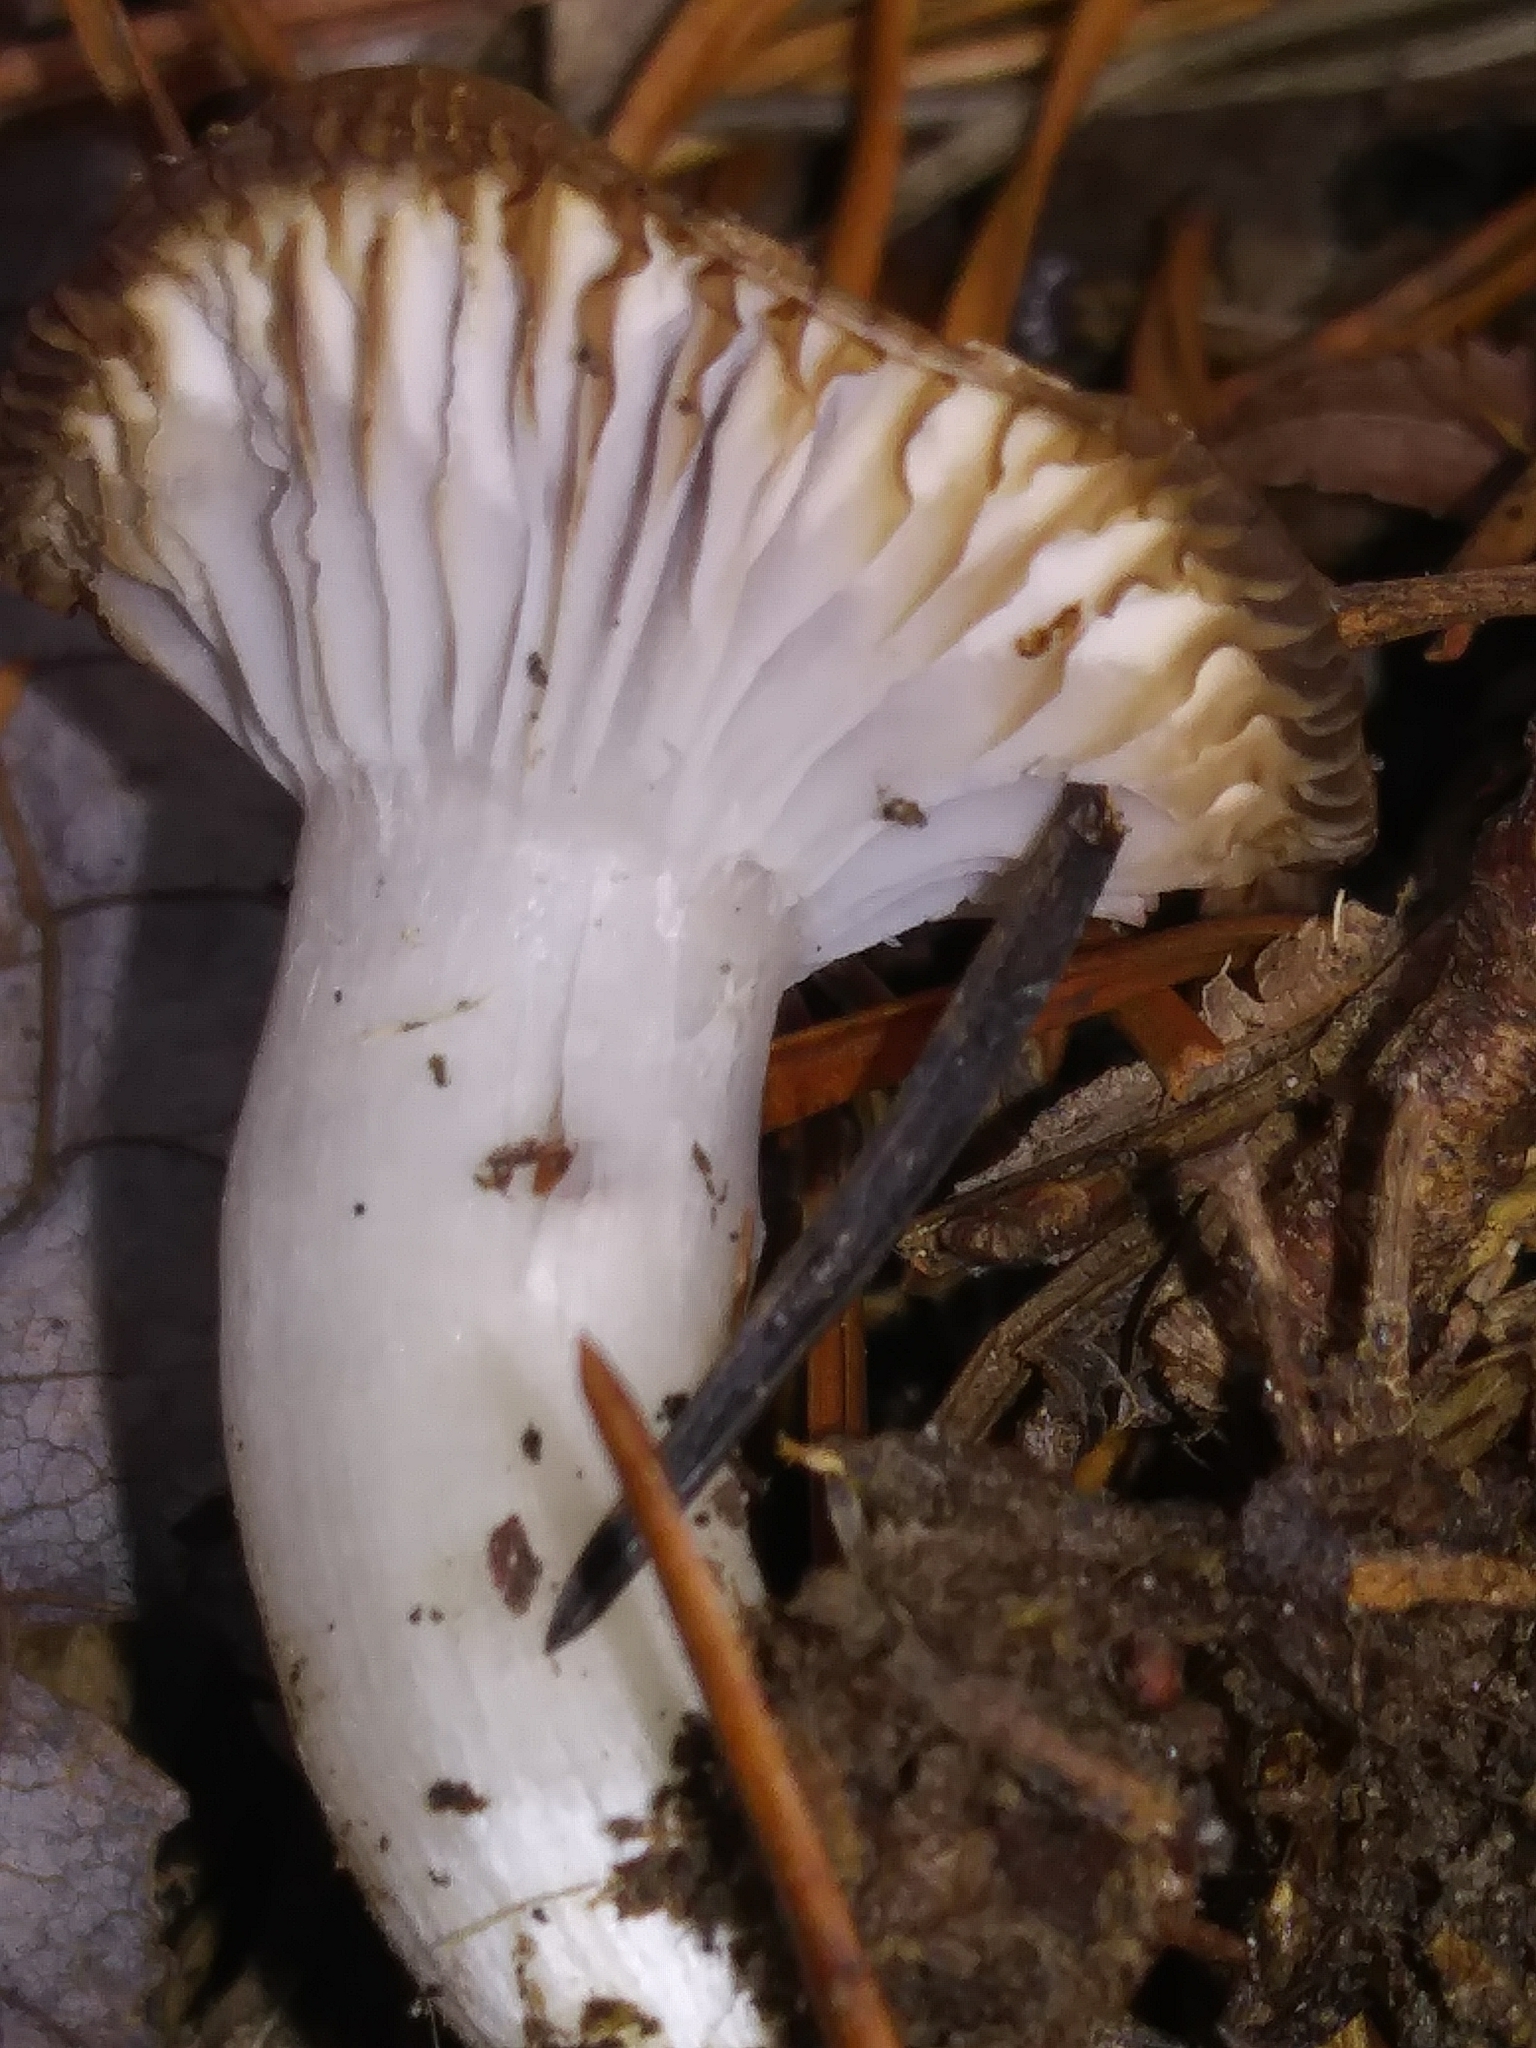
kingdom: Fungi
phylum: Basidiomycota
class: Agaricomycetes
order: Agaricales
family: Tricholomataceae
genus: Collybia
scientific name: Collybia
